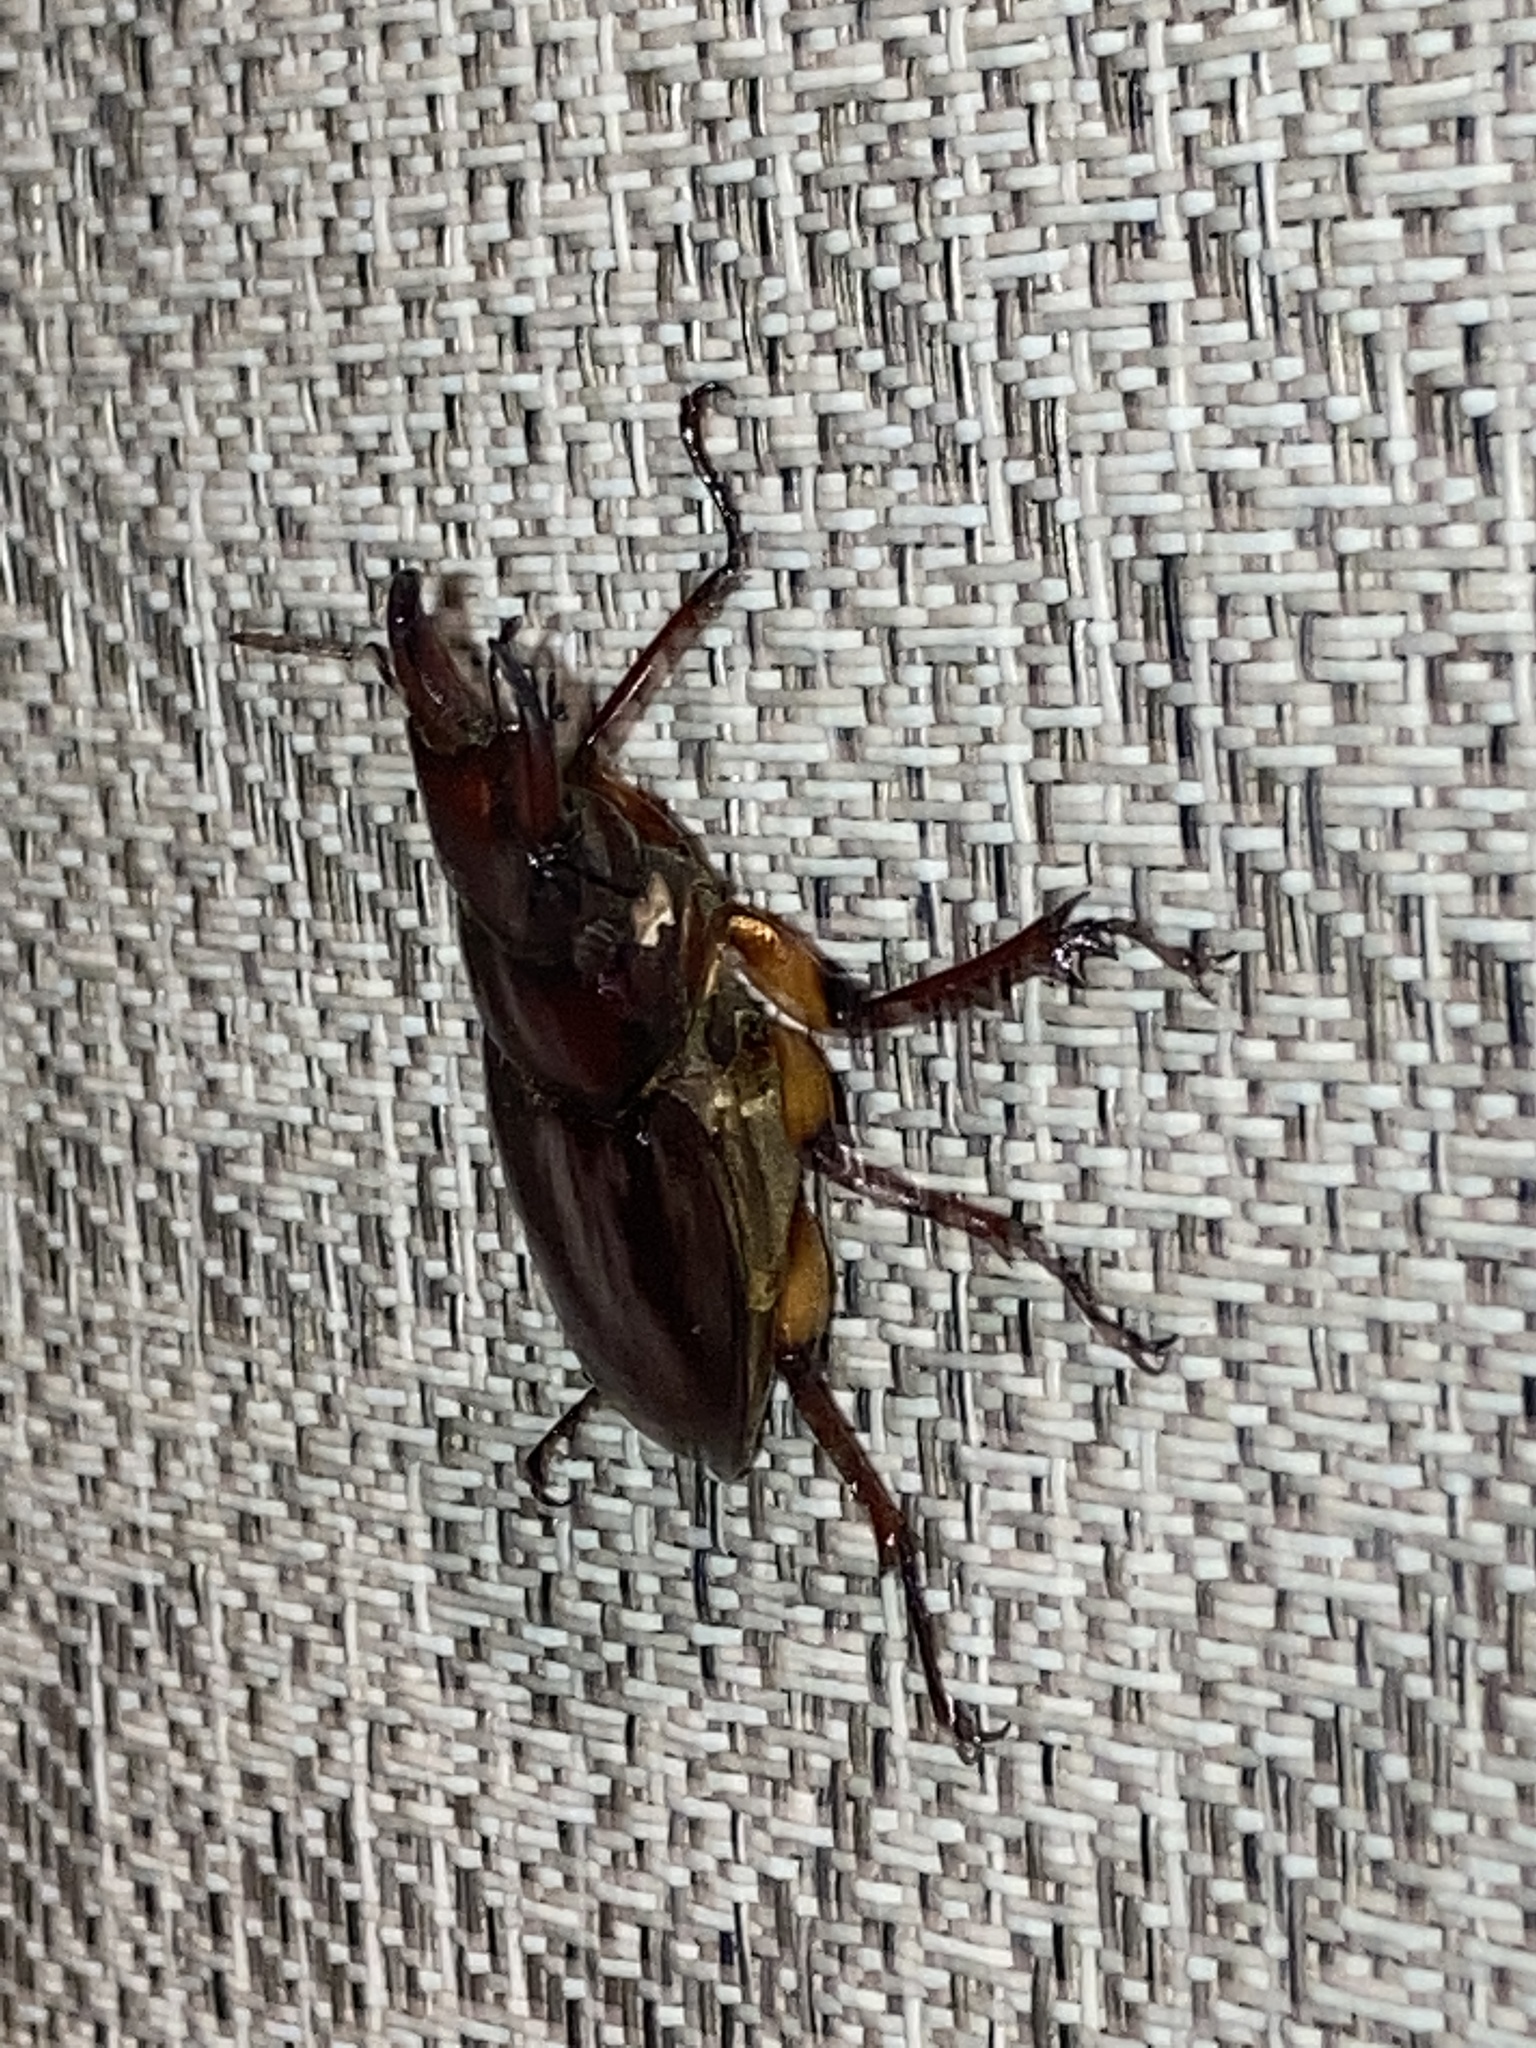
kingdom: Animalia
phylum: Arthropoda
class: Insecta
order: Coleoptera
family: Lucanidae
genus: Lucanus
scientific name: Lucanus capreolus
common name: Stag beetle
